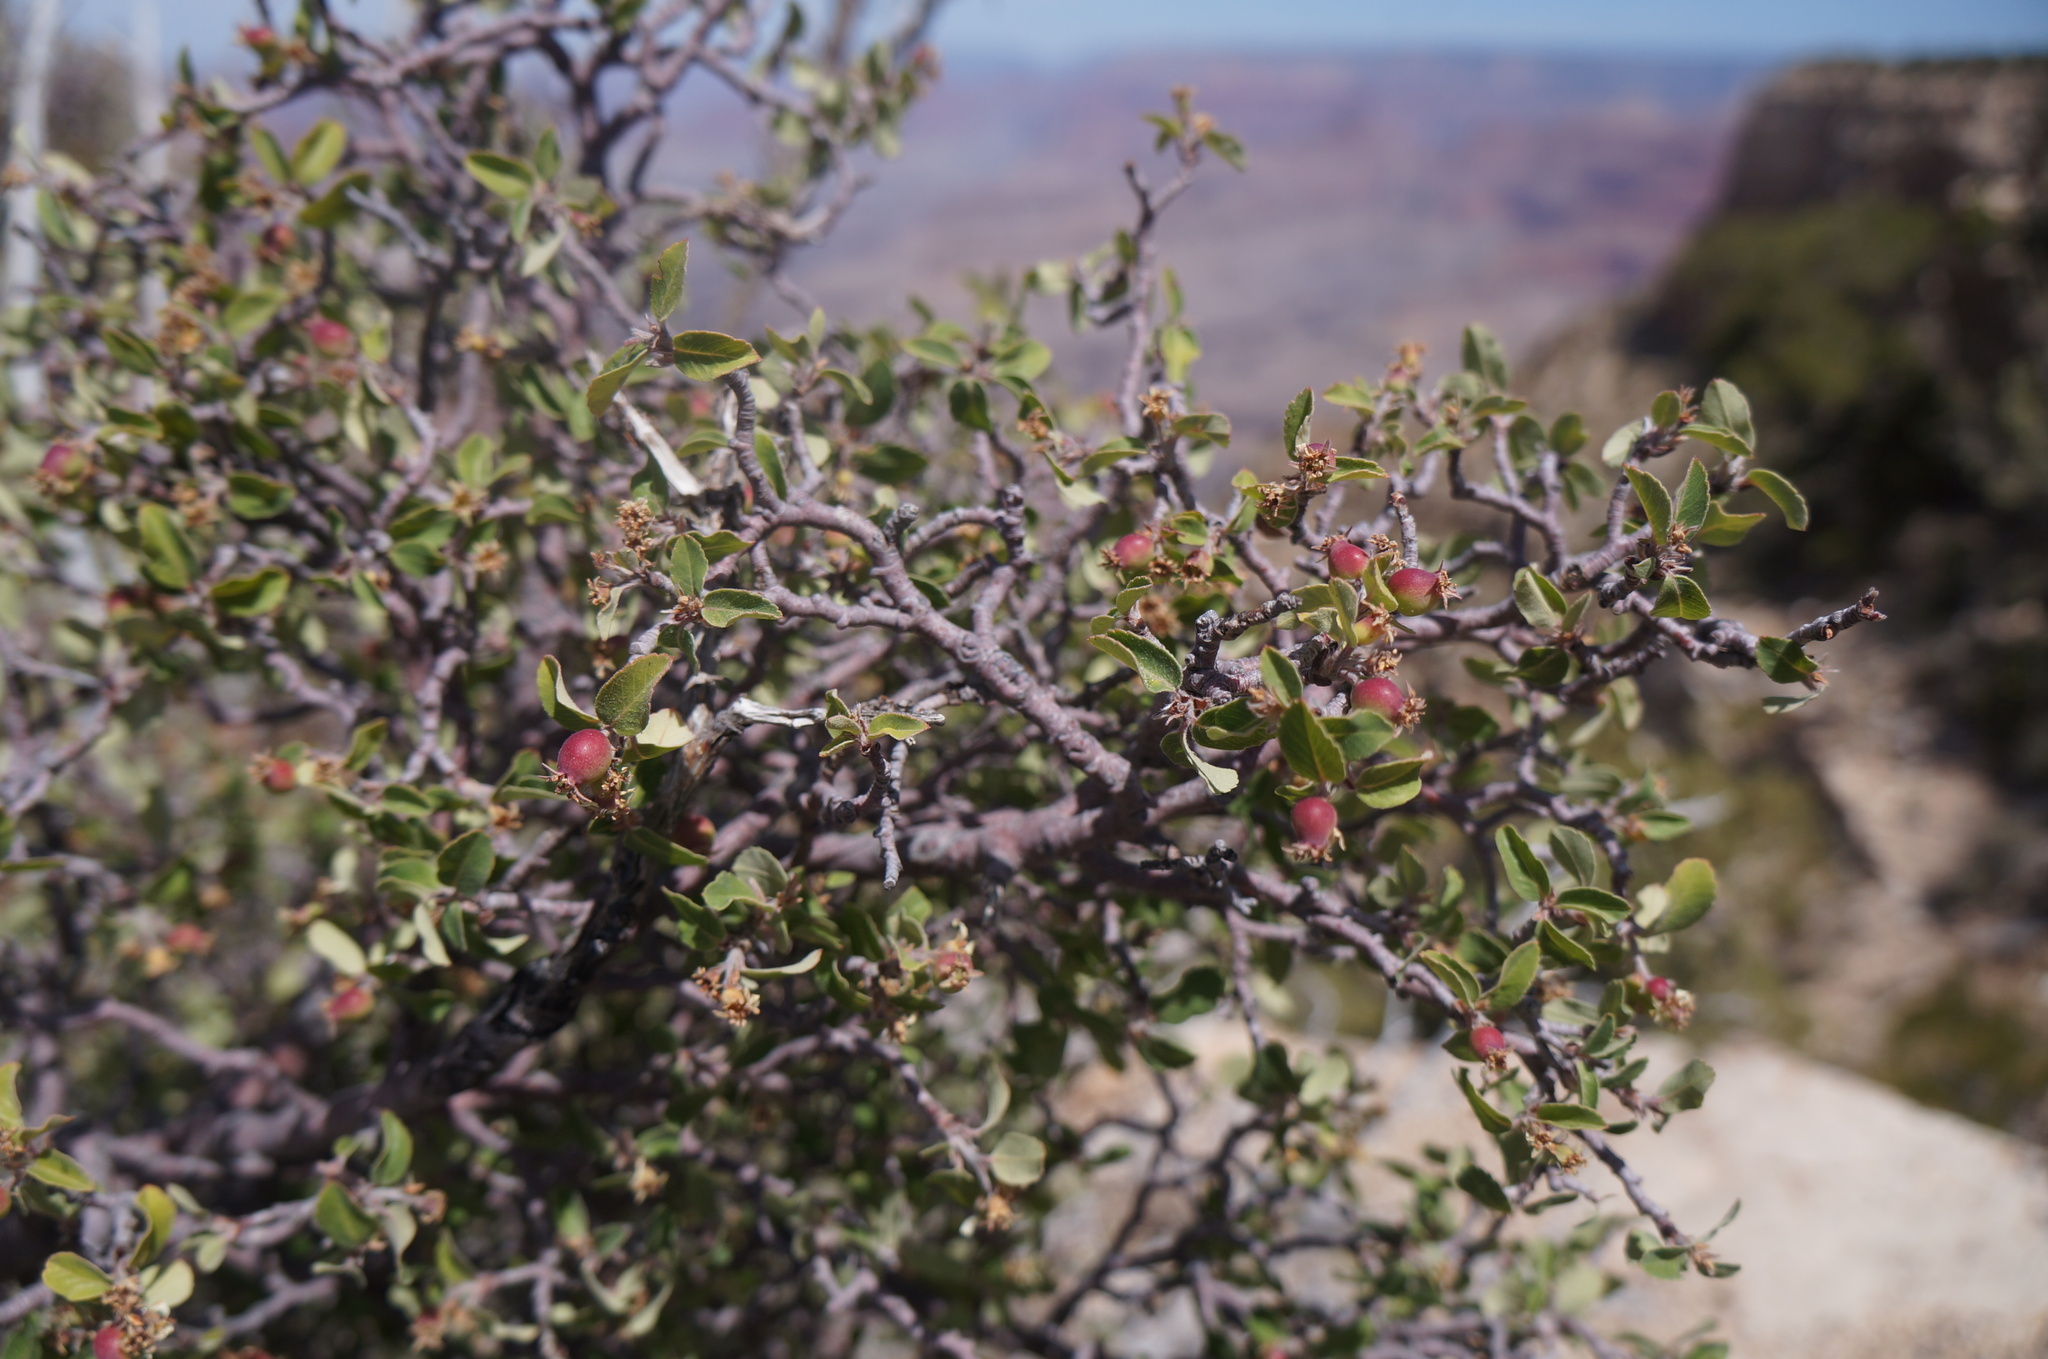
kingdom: Plantae
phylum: Tracheophyta
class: Magnoliopsida
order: Rosales
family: Rosaceae
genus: Amelanchier
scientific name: Amelanchier utahensis
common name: Utah serviceberry
